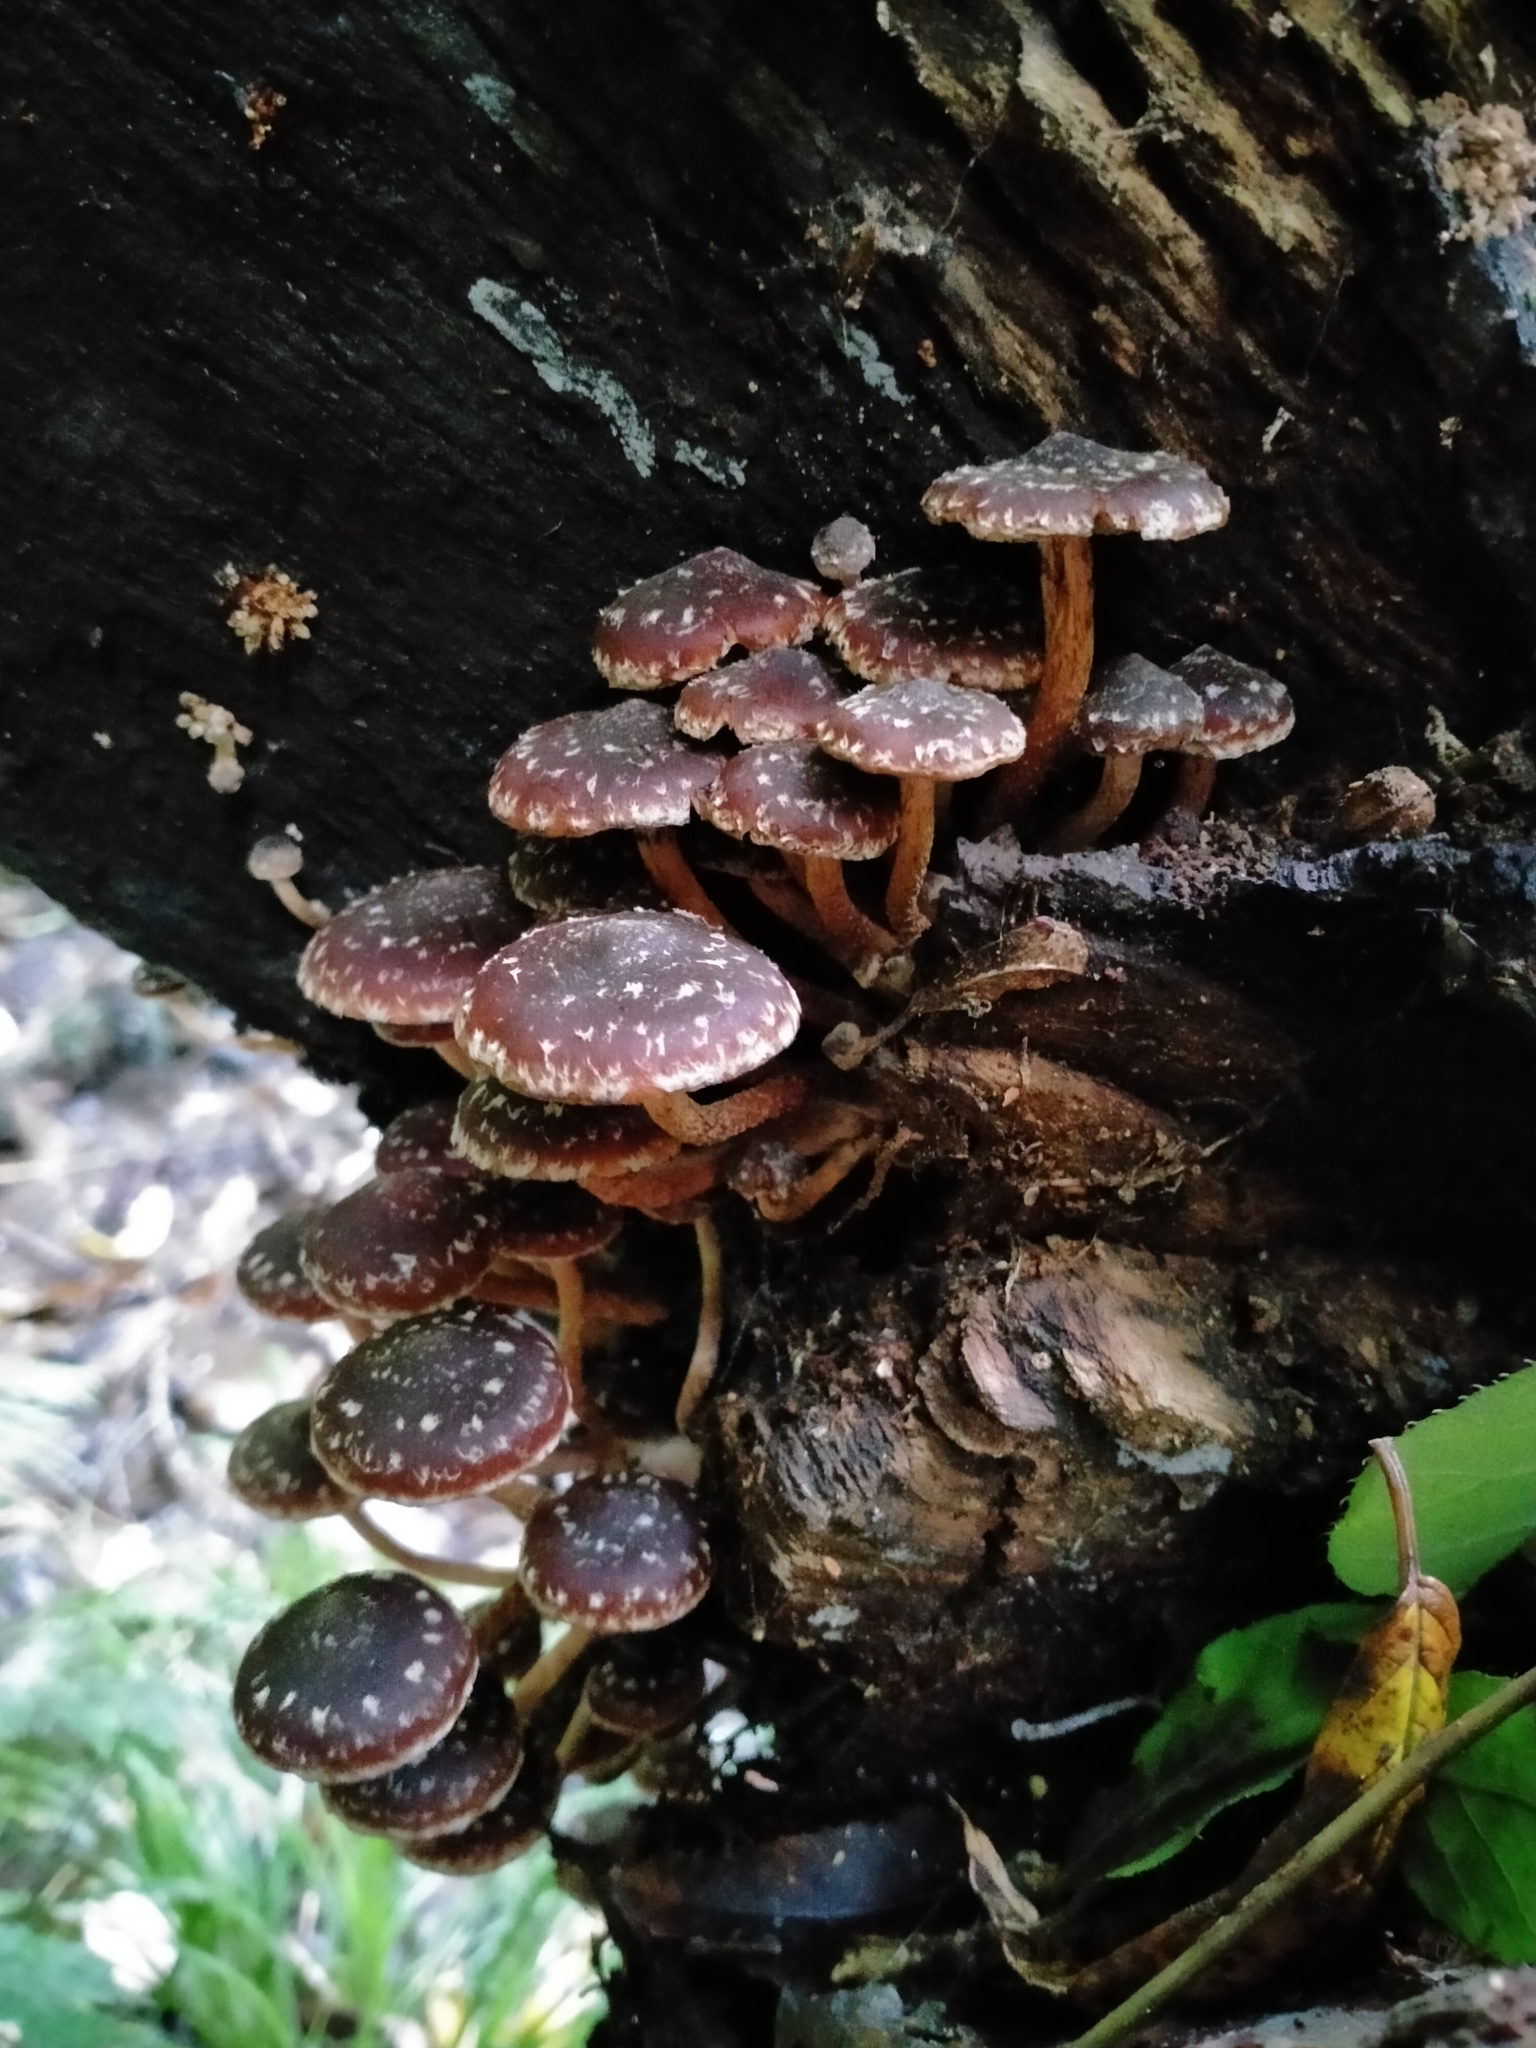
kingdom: Fungi
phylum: Basidiomycota
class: Agaricomycetes
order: Agaricales
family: Strophariaceae
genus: Hypholoma
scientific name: Hypholoma brunneum
